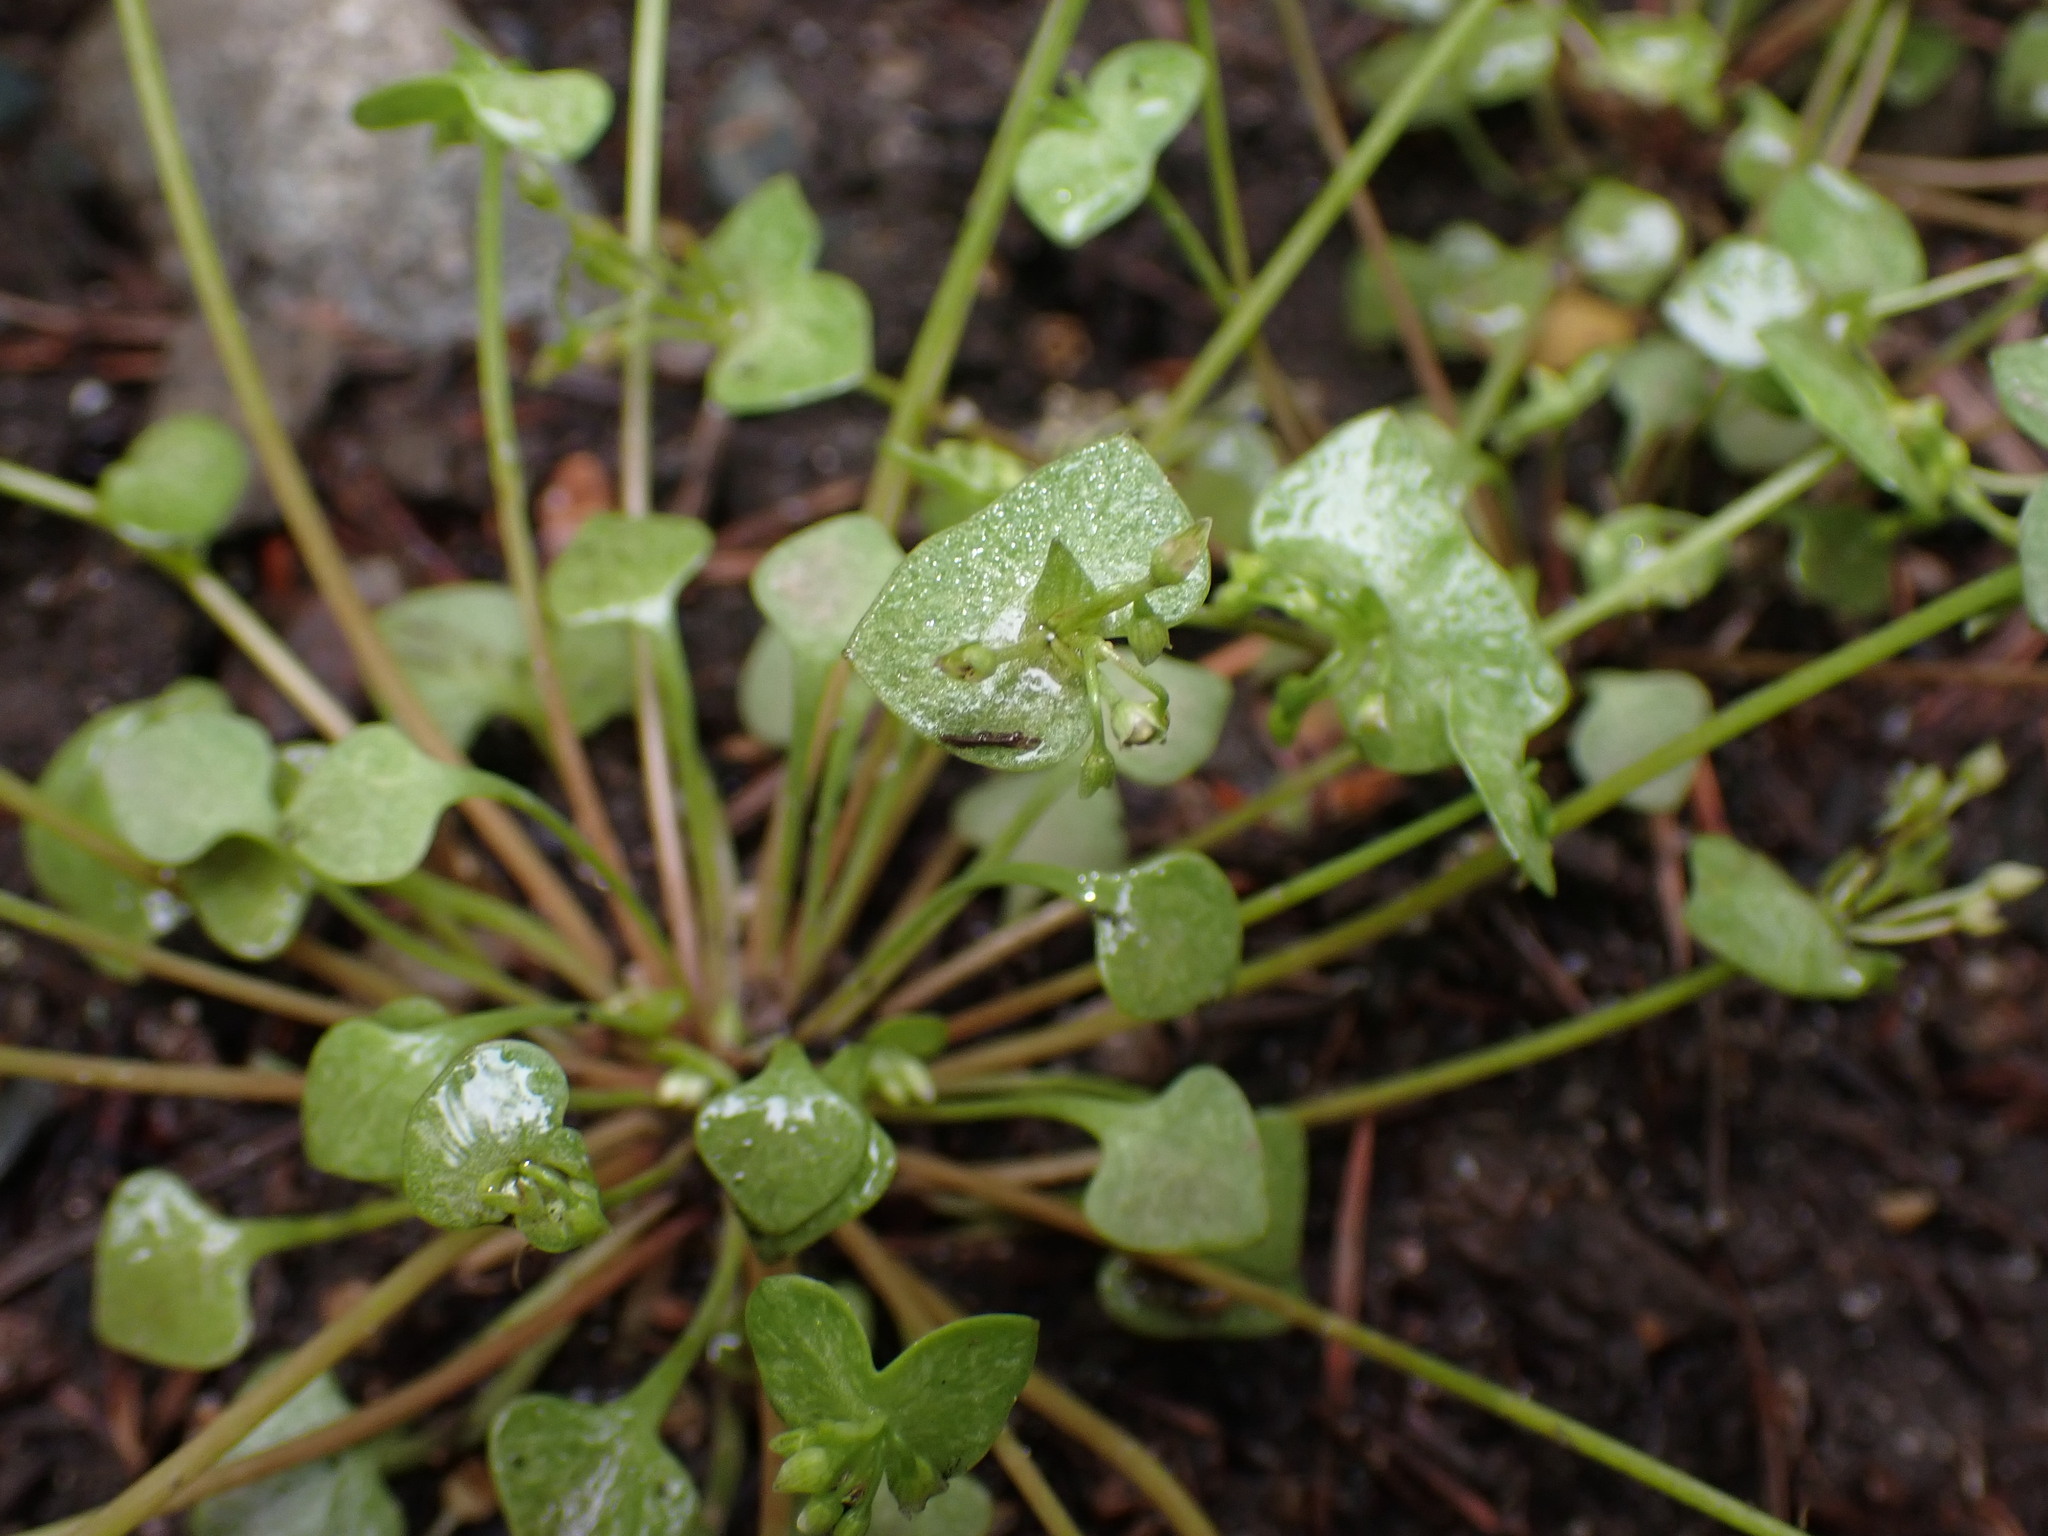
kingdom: Plantae
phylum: Tracheophyta
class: Magnoliopsida
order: Caryophyllales
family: Montiaceae
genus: Claytonia
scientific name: Claytonia rubra
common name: Erubescent miner's-lettuce
